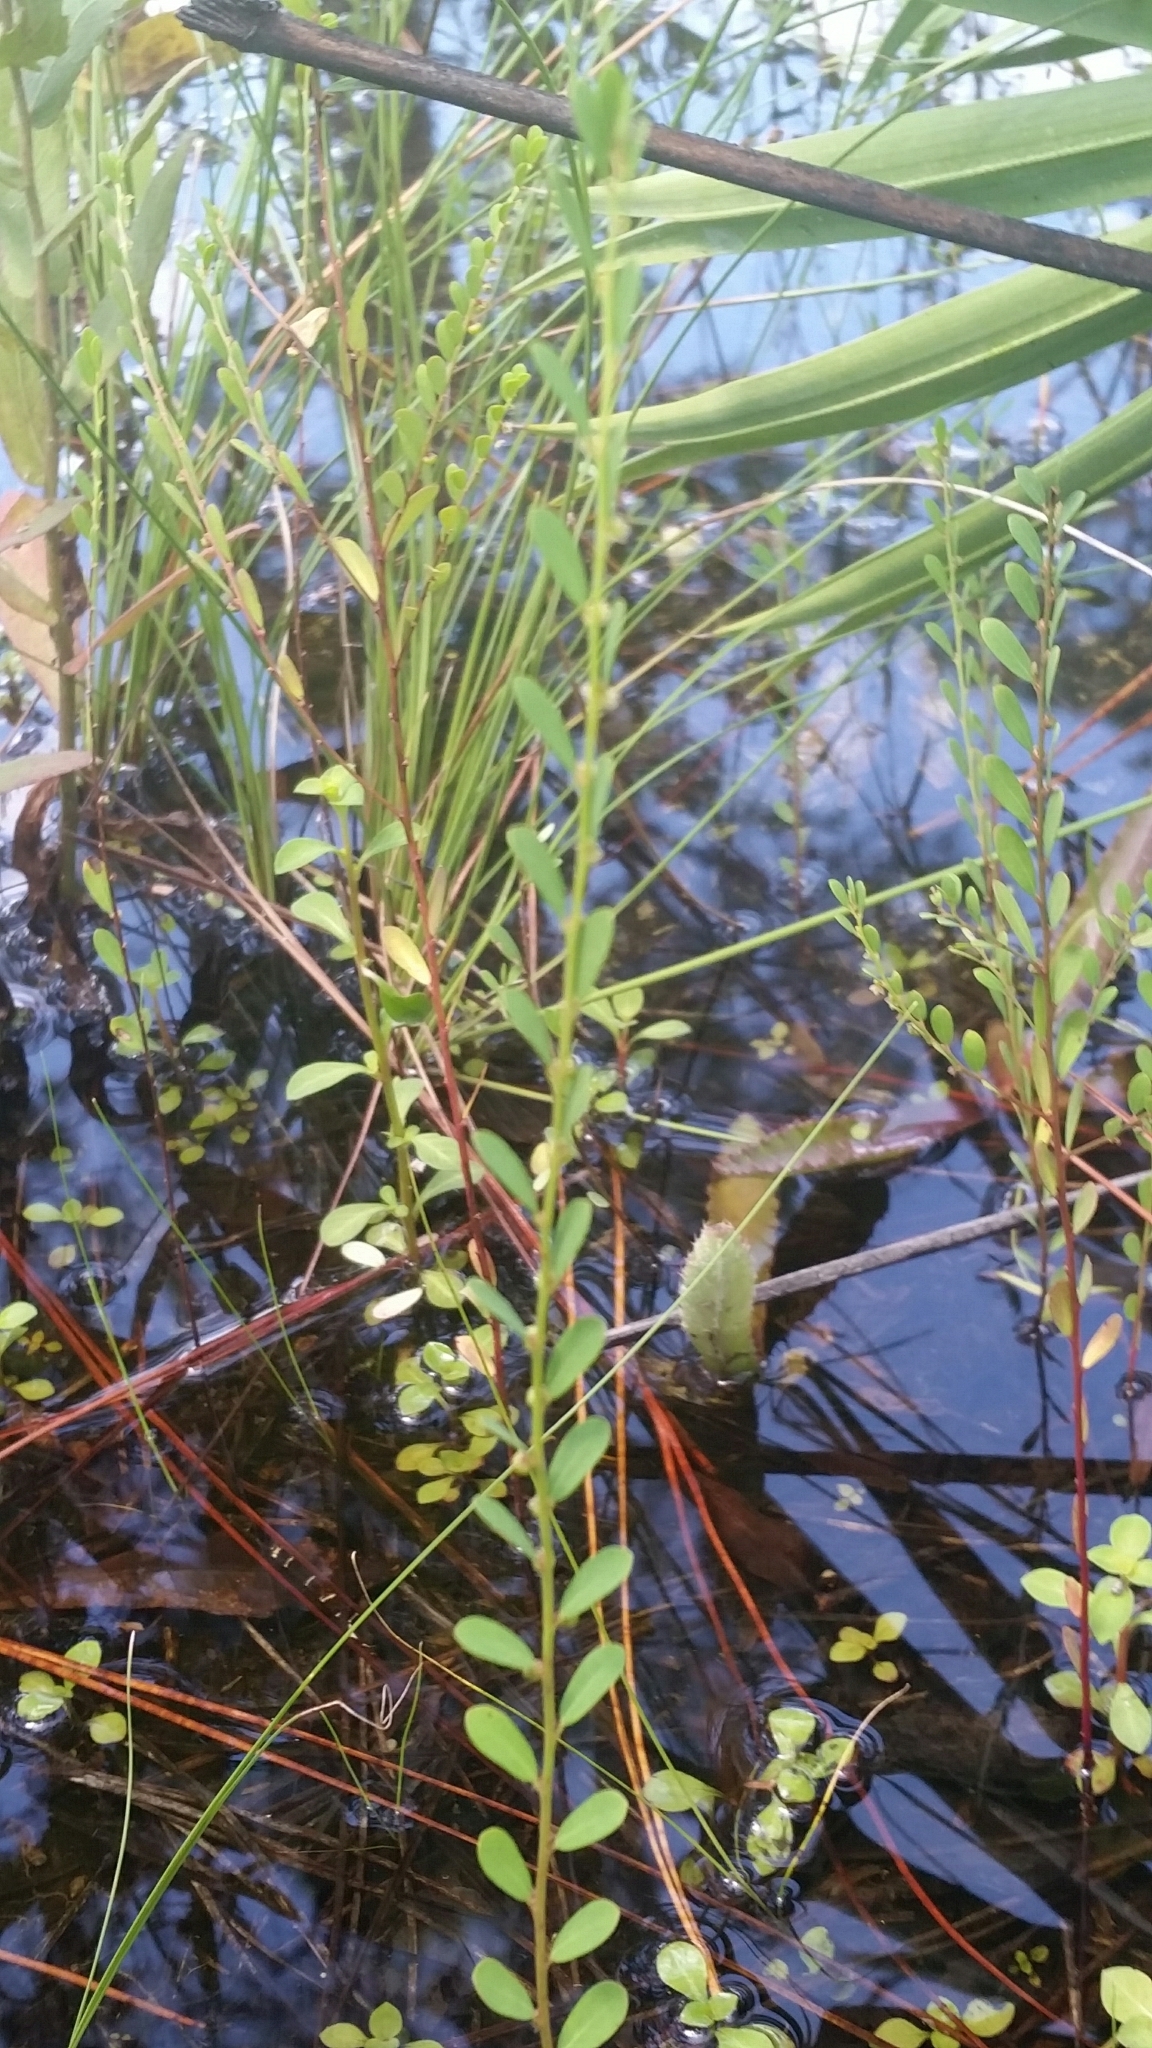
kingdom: Plantae
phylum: Tracheophyta
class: Magnoliopsida
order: Malpighiales
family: Phyllanthaceae
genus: Phyllanthus
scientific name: Phyllanthus caroliniensis
